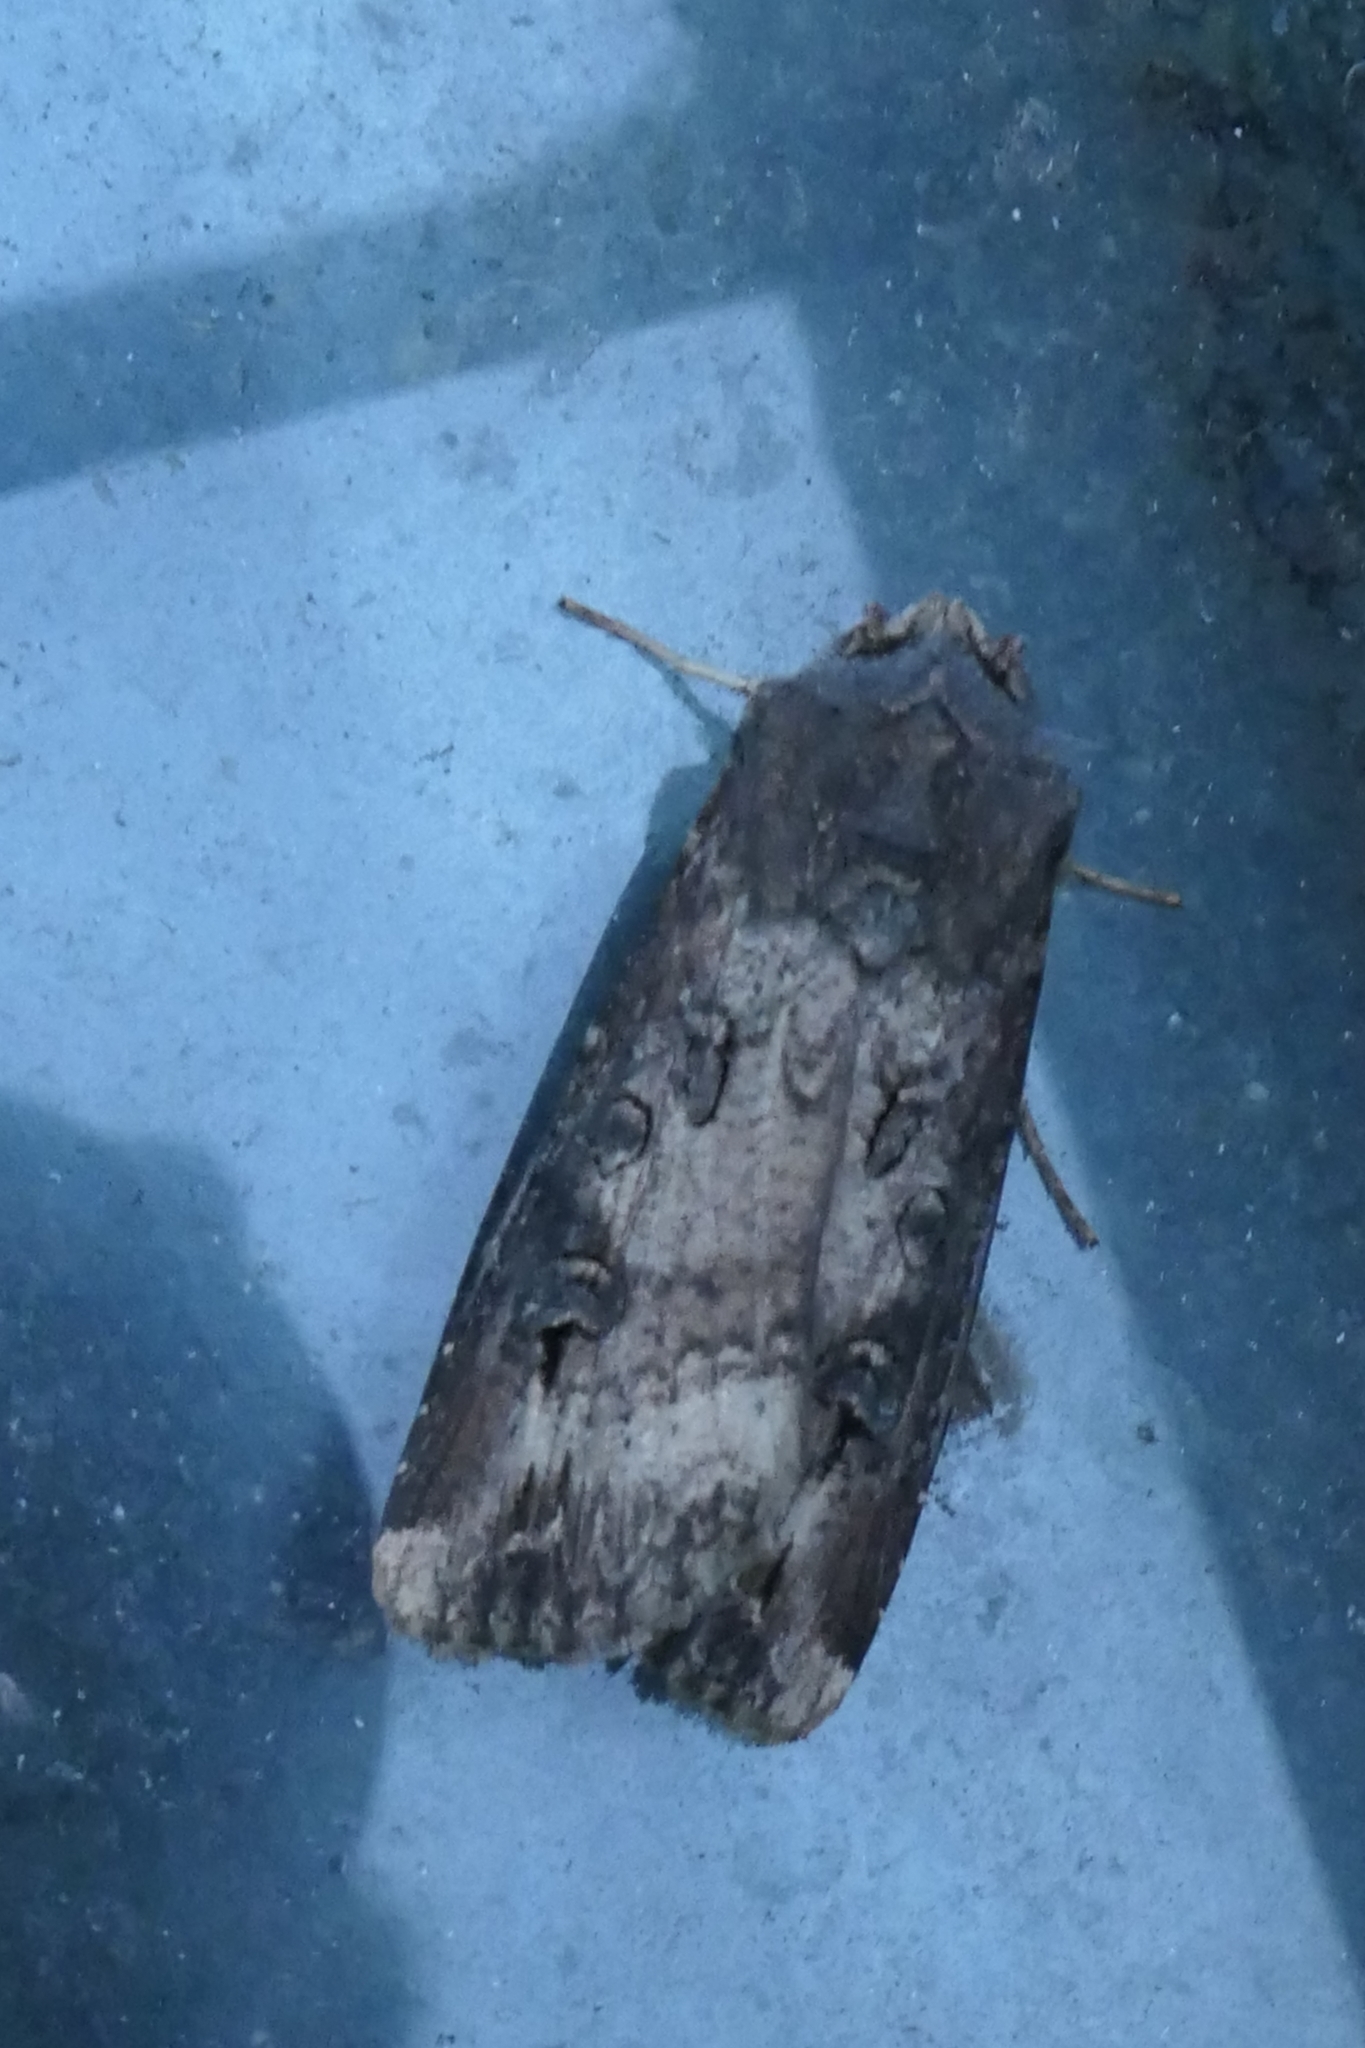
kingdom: Animalia
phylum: Arthropoda
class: Insecta
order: Lepidoptera
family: Noctuidae
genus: Agrotis
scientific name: Agrotis ipsilon
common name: Dark sword-grass
